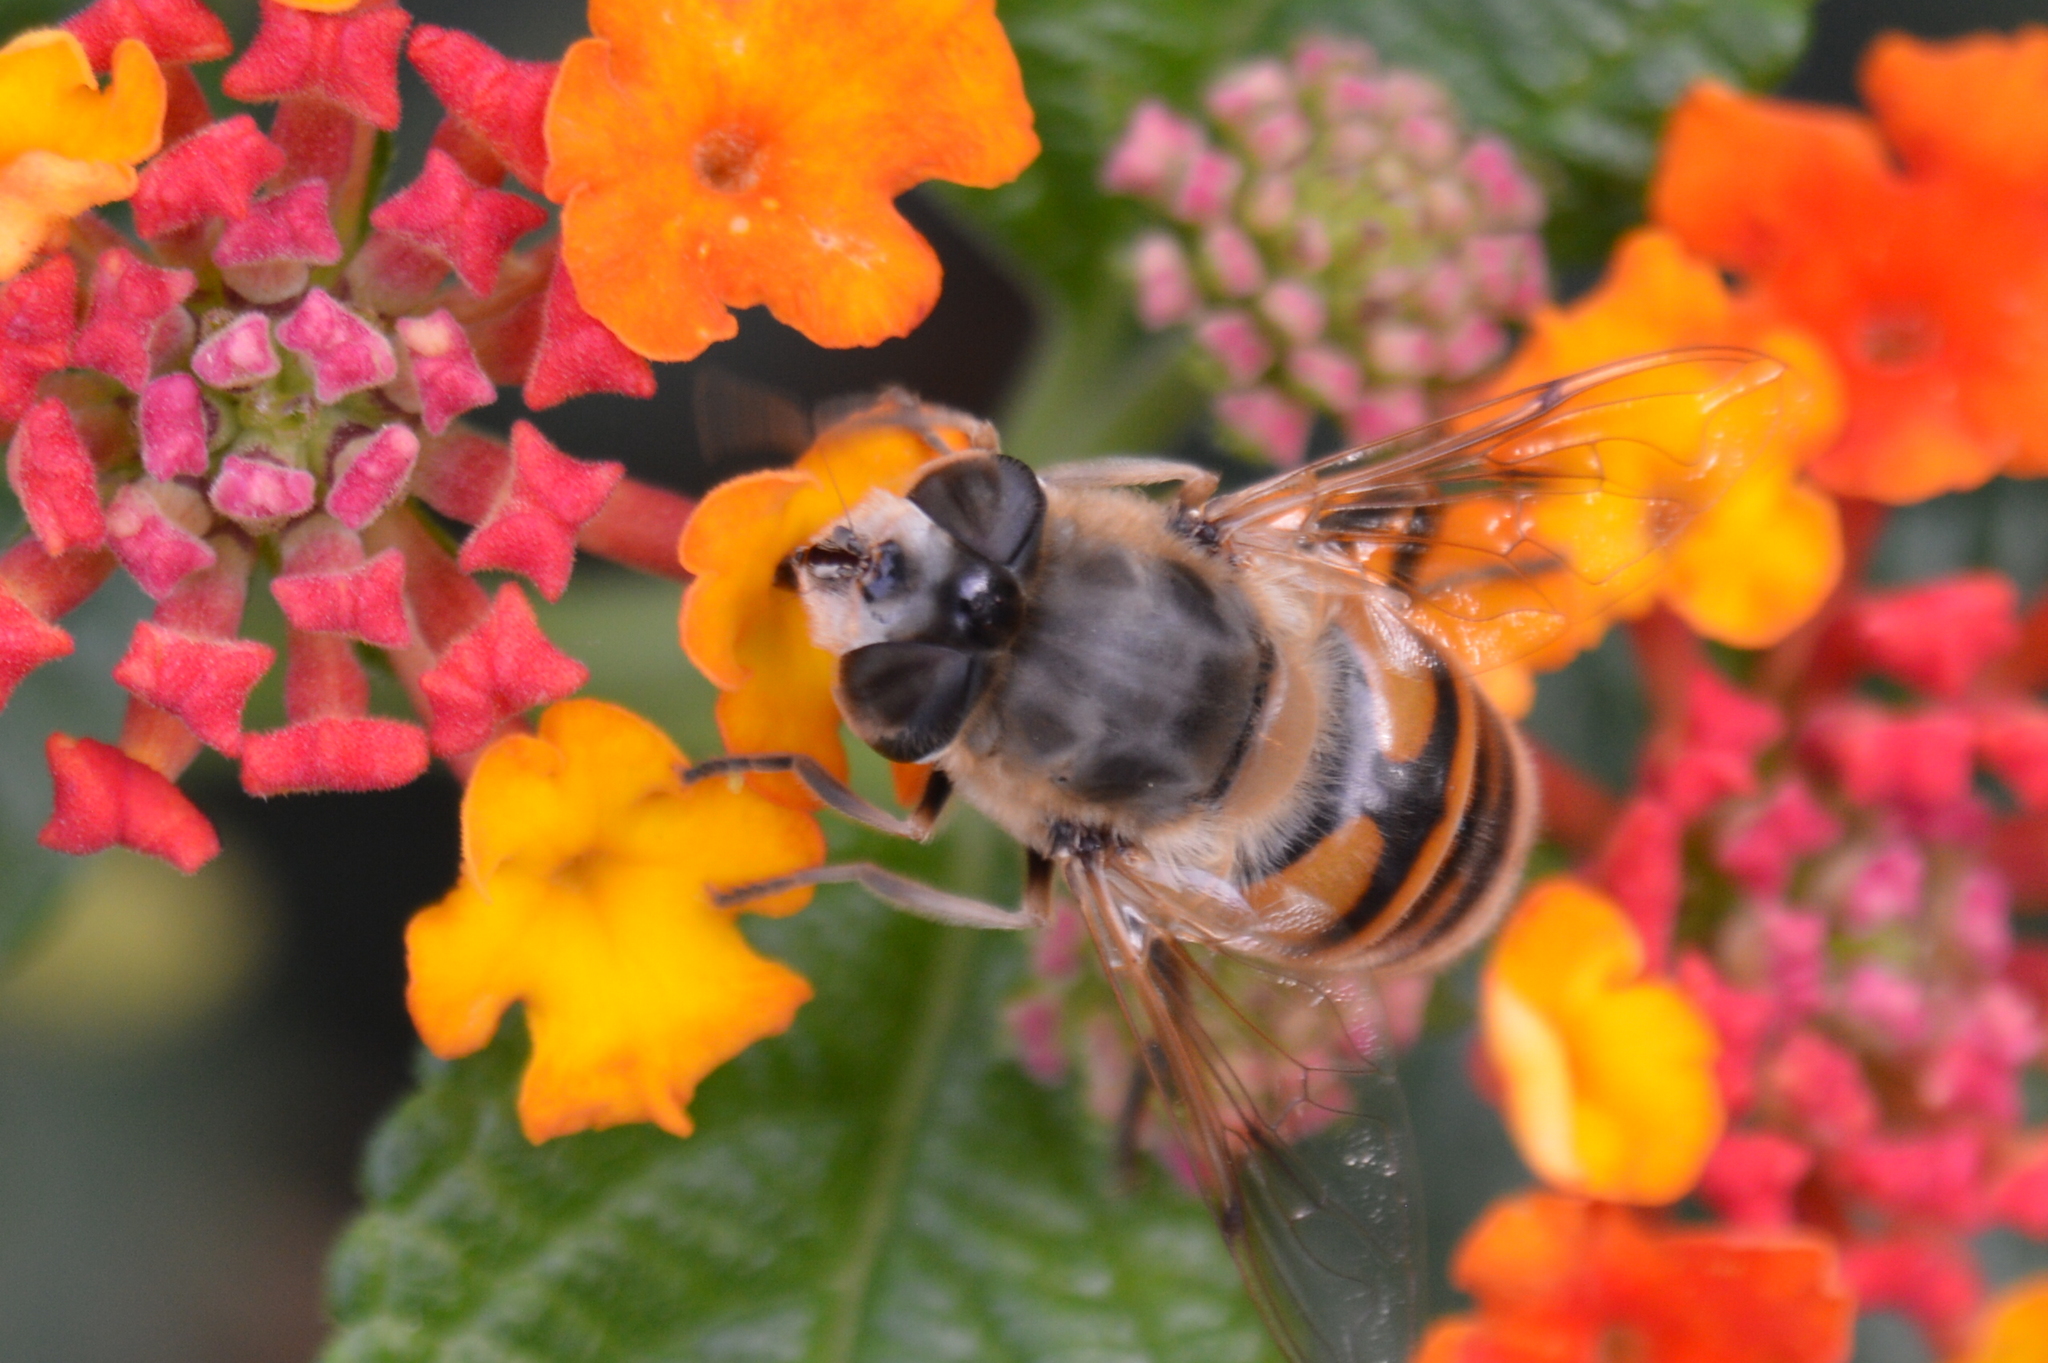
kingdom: Animalia
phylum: Arthropoda
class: Insecta
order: Diptera
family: Syrphidae
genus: Eristalis
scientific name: Eristalis tenax
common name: Drone fly
